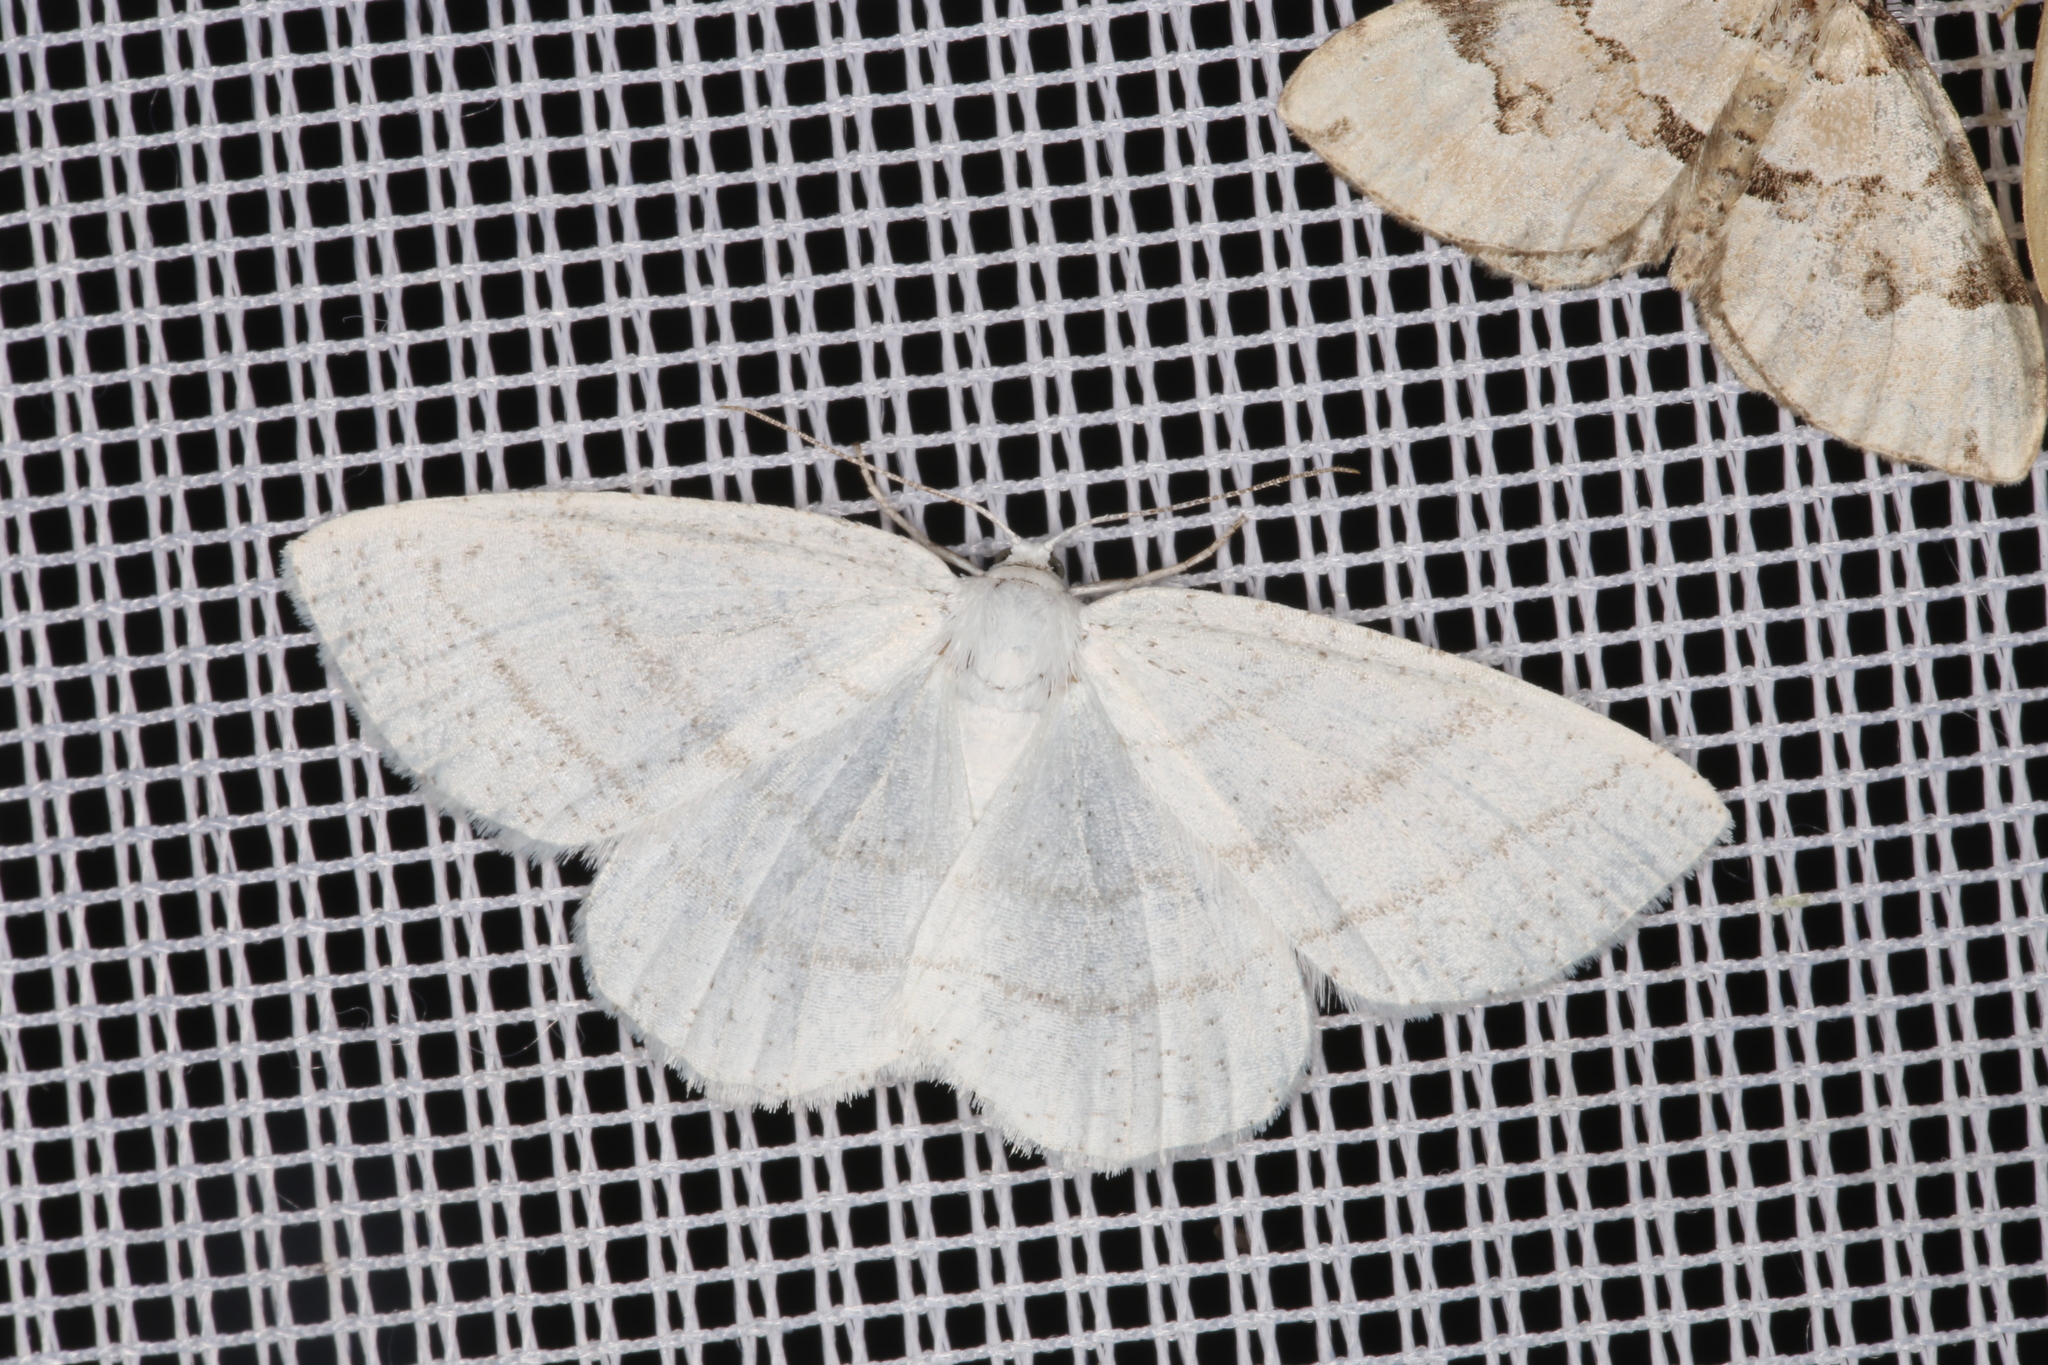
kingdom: Animalia
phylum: Arthropoda
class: Insecta
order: Lepidoptera
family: Geometridae
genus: Cabera
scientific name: Cabera pusaria
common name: Common white wave
